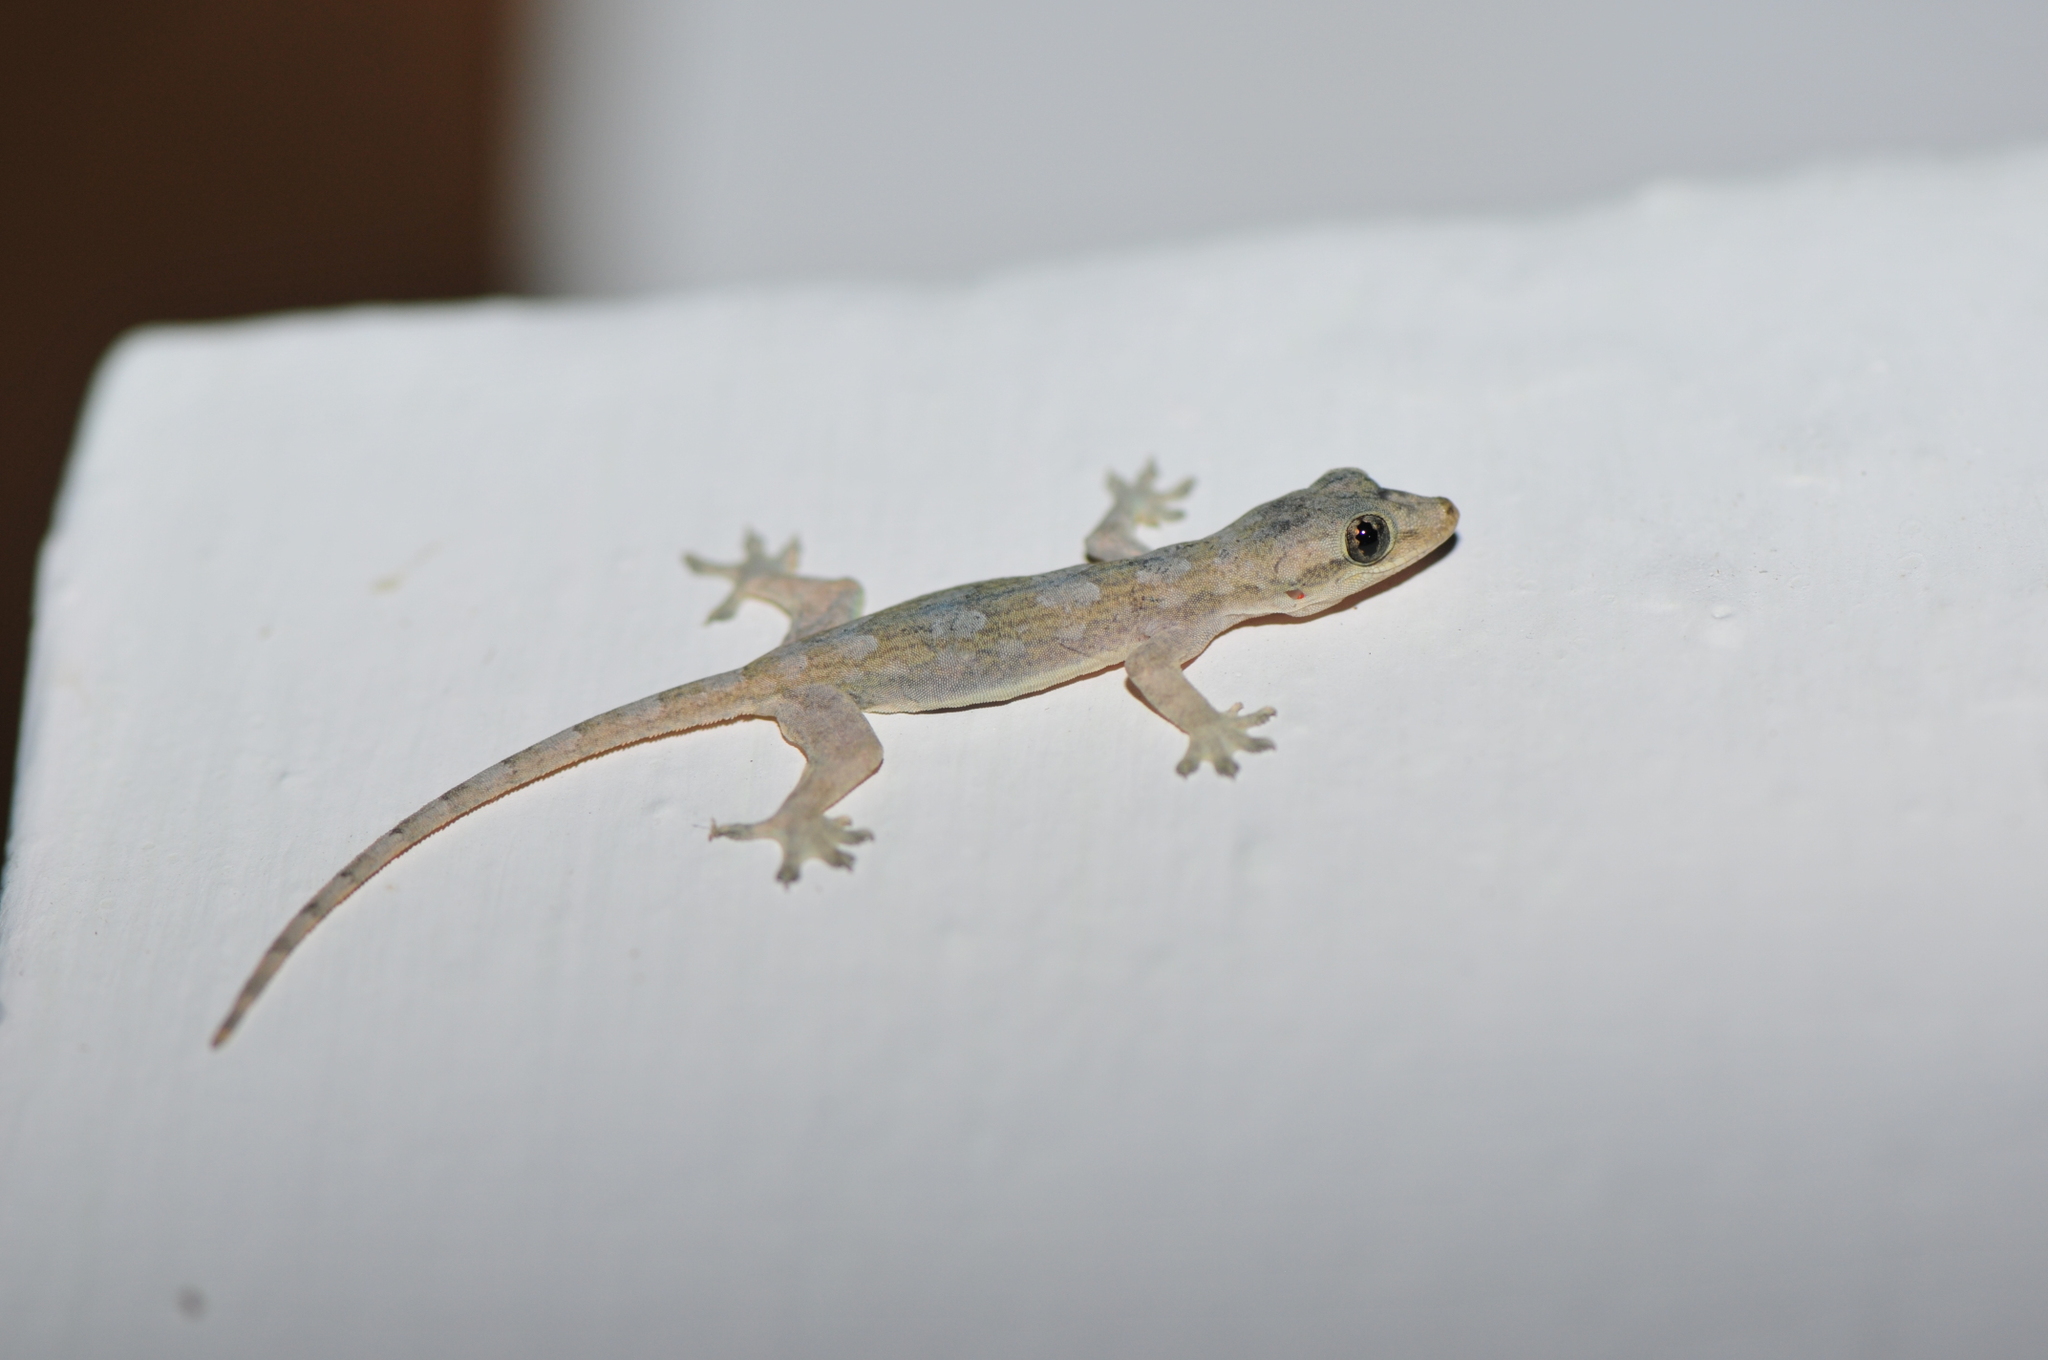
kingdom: Animalia
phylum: Chordata
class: Squamata
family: Gekkonidae
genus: Hemidactylus
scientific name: Hemidactylus platyurus
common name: Flat-tailed house gecko
